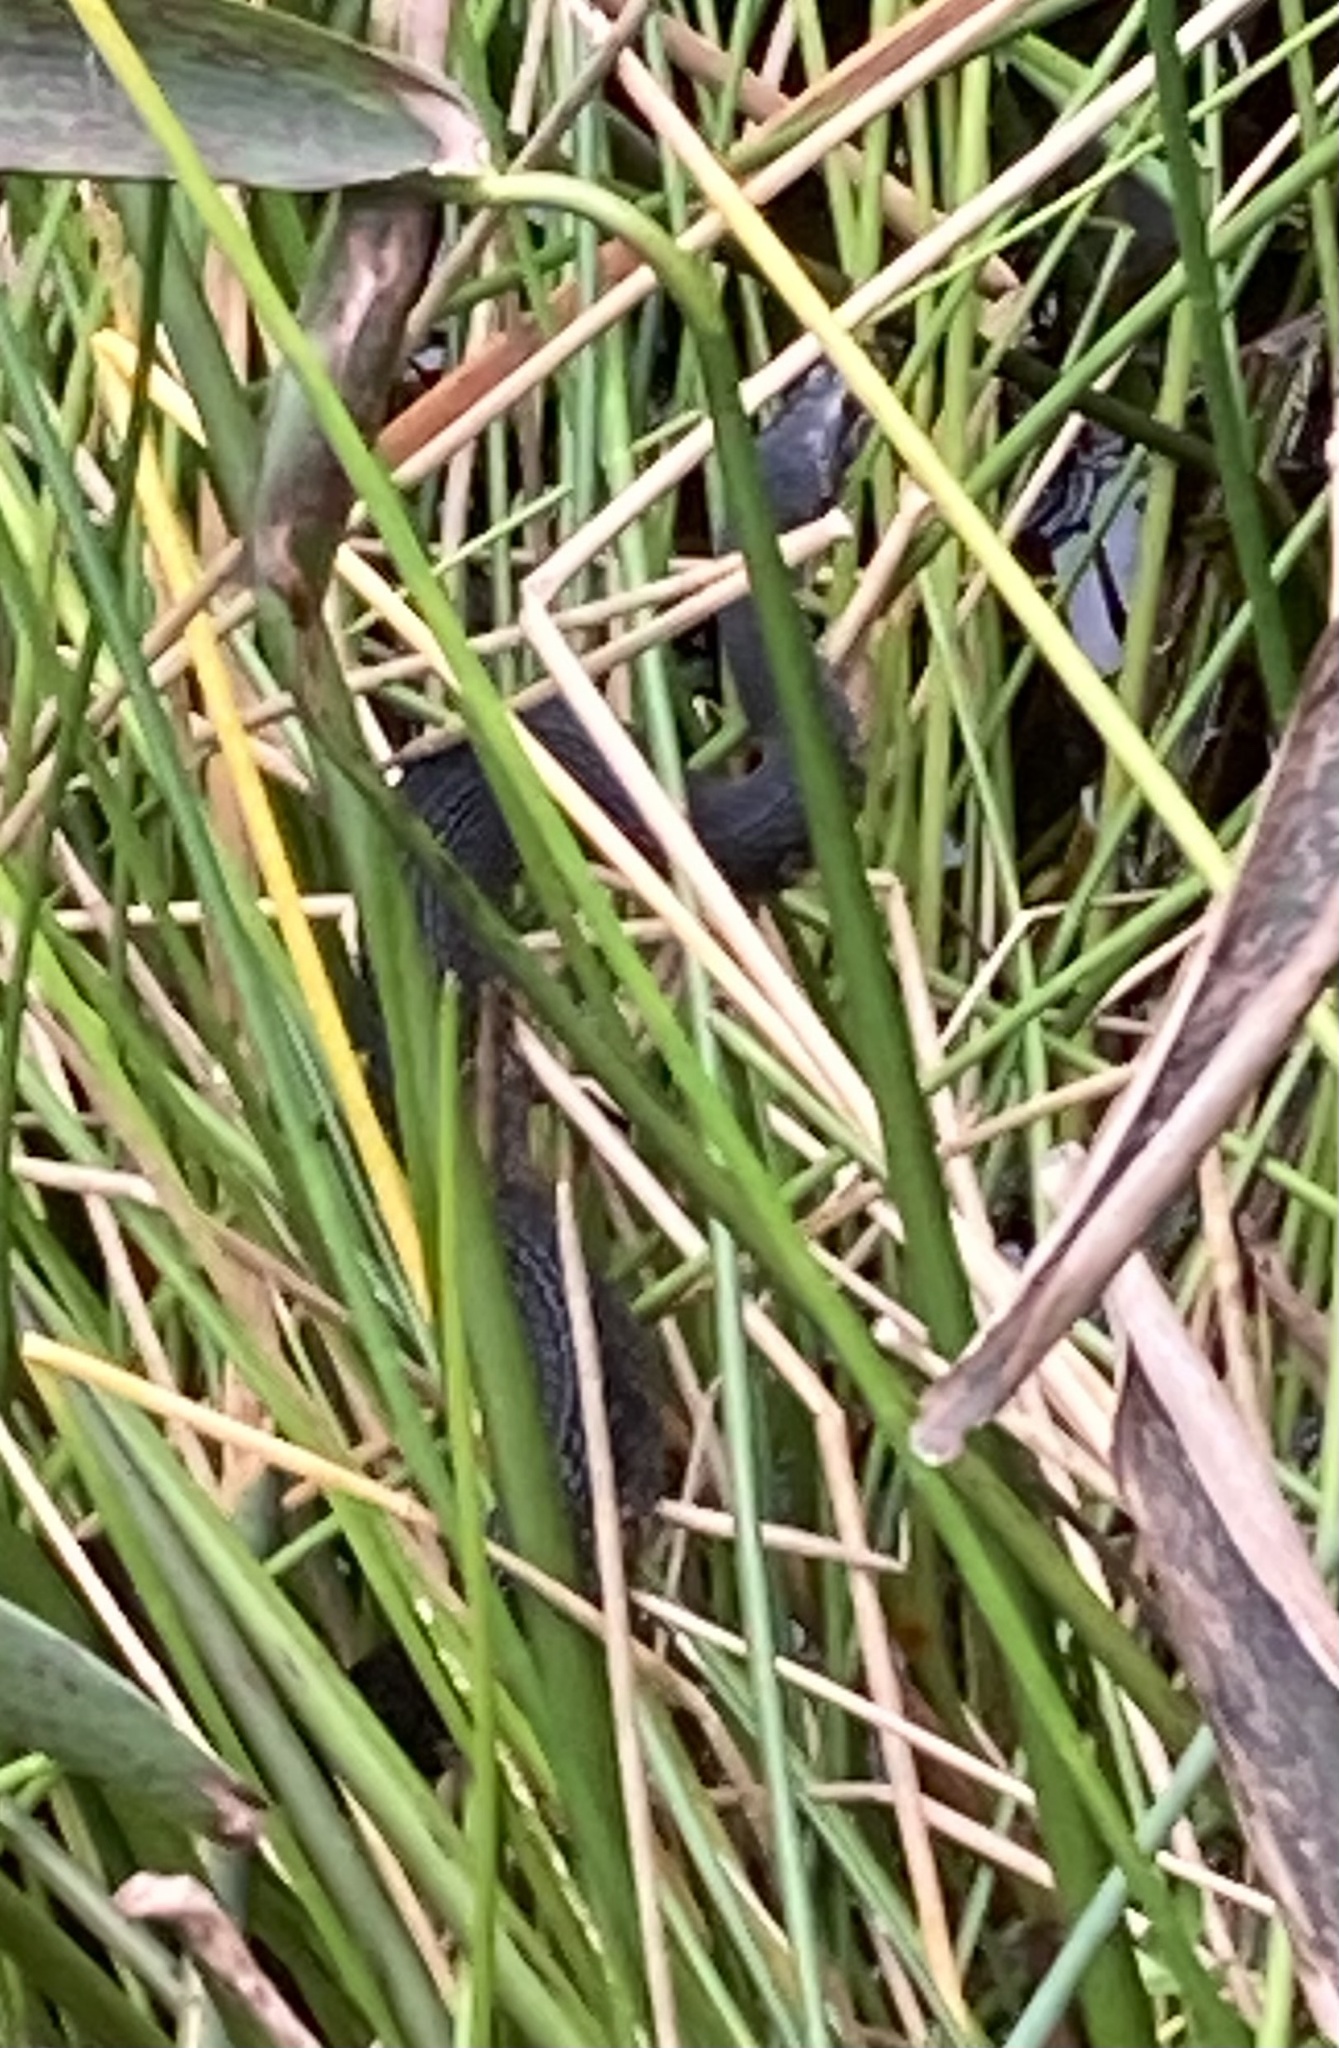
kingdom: Animalia
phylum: Chordata
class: Squamata
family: Colubridae
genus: Nerodia
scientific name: Nerodia fasciata
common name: Southern water snake
